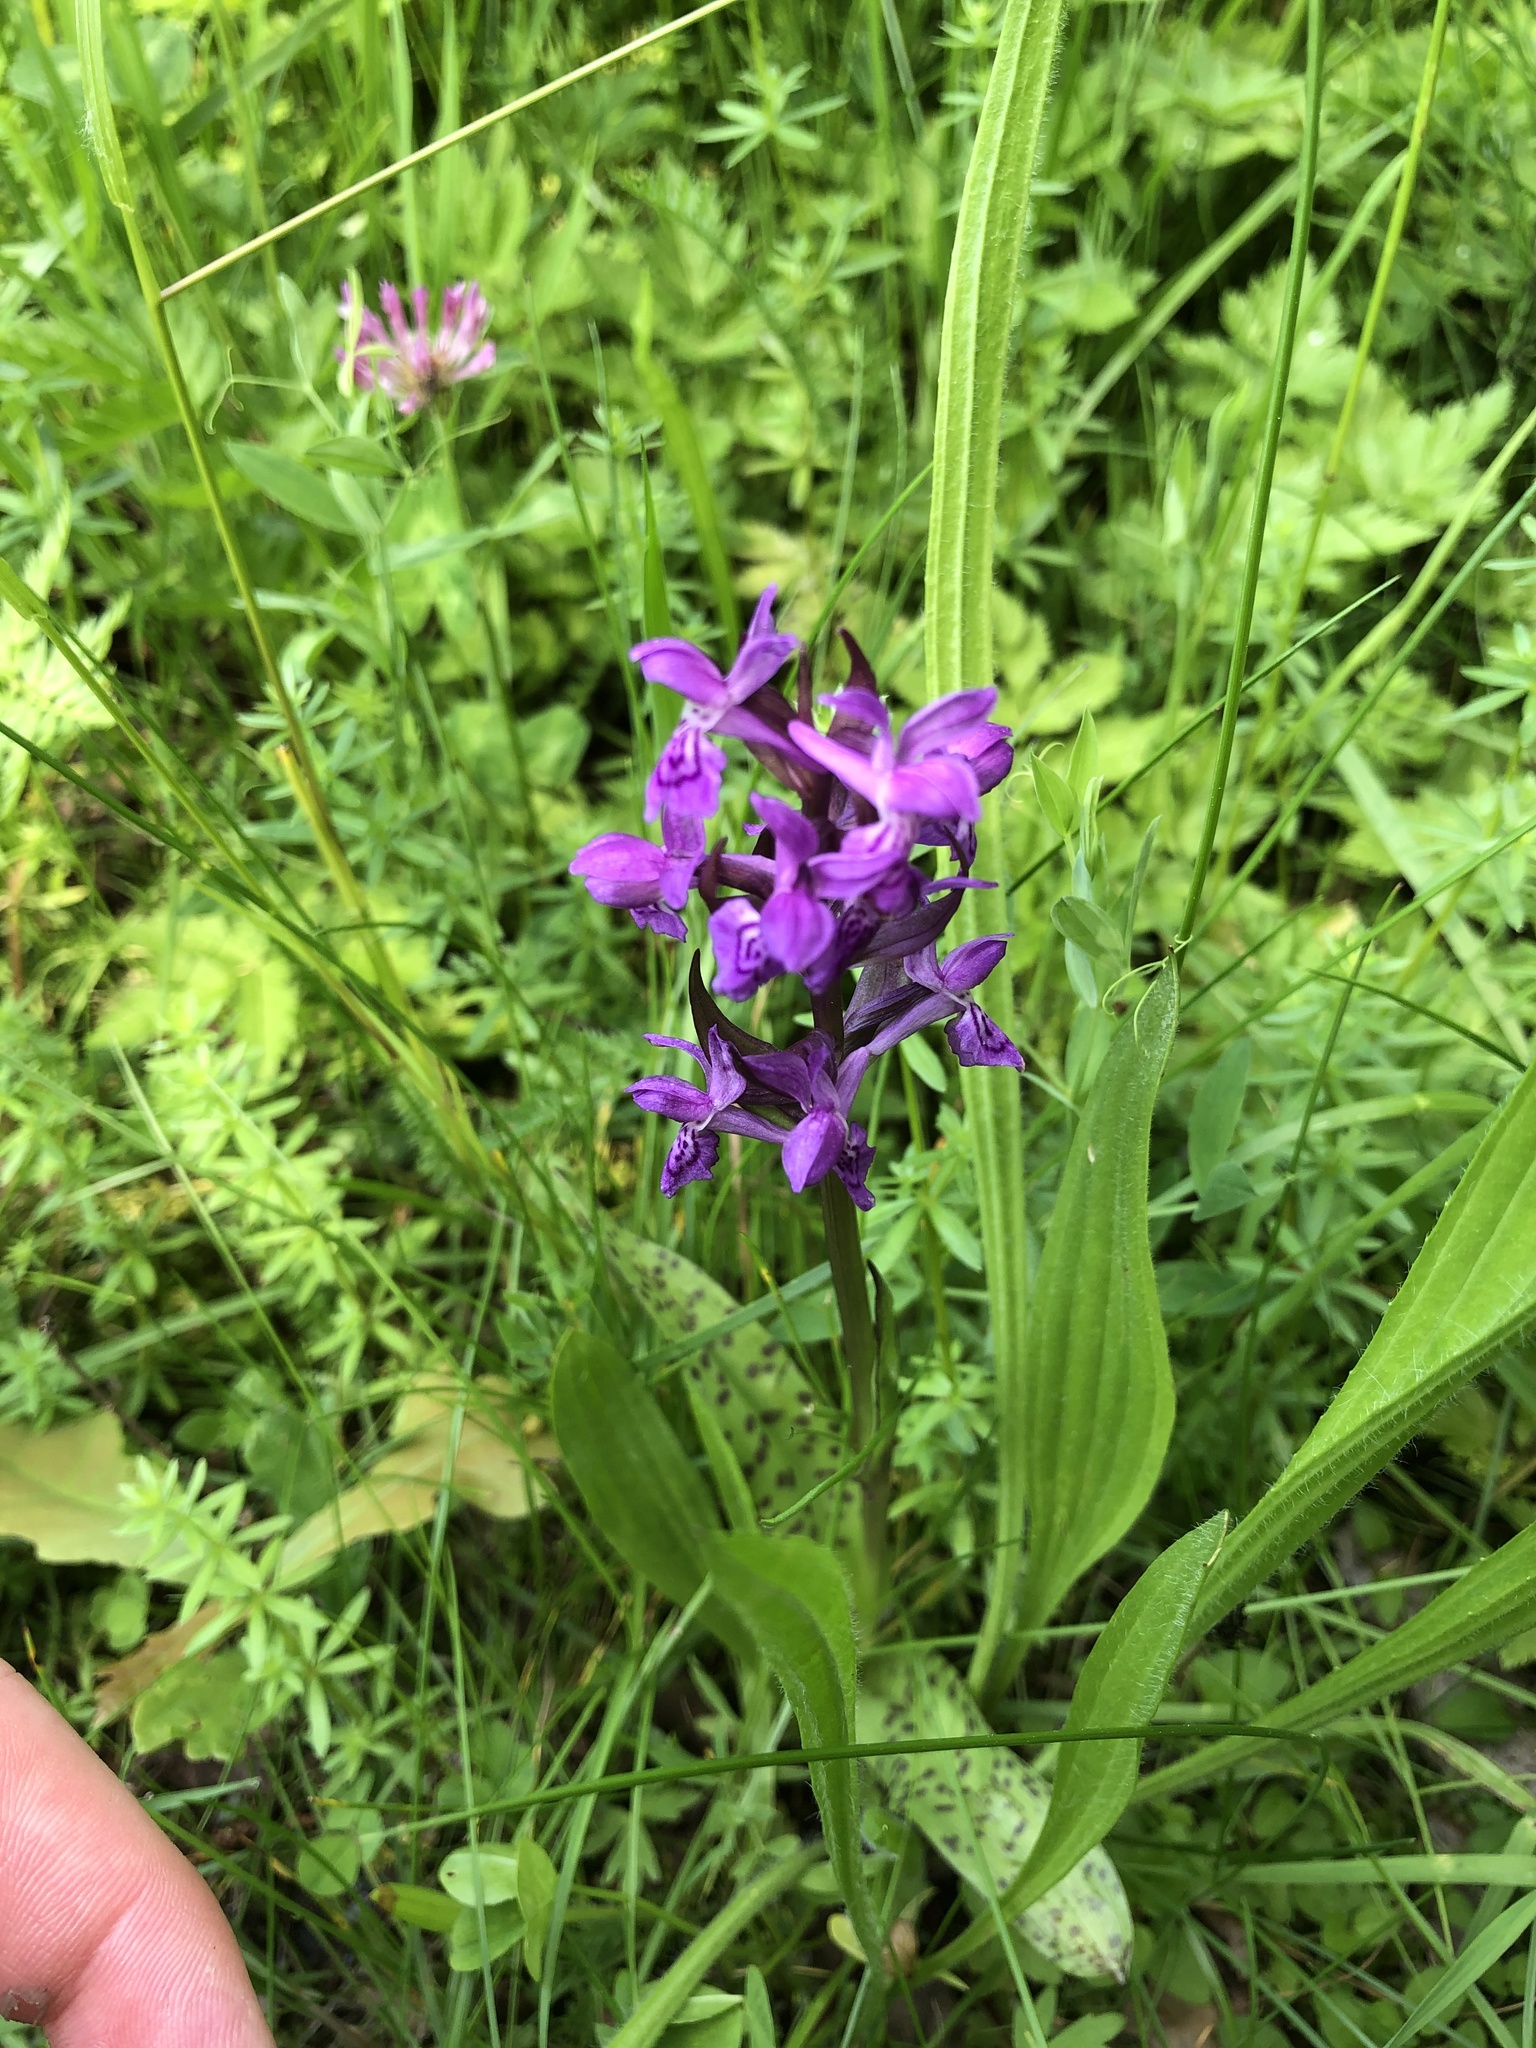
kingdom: Plantae
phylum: Tracheophyta
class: Liliopsida
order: Asparagales
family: Orchidaceae
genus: Dactylorhiza
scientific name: Dactylorhiza majalis
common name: Marsh orchid
